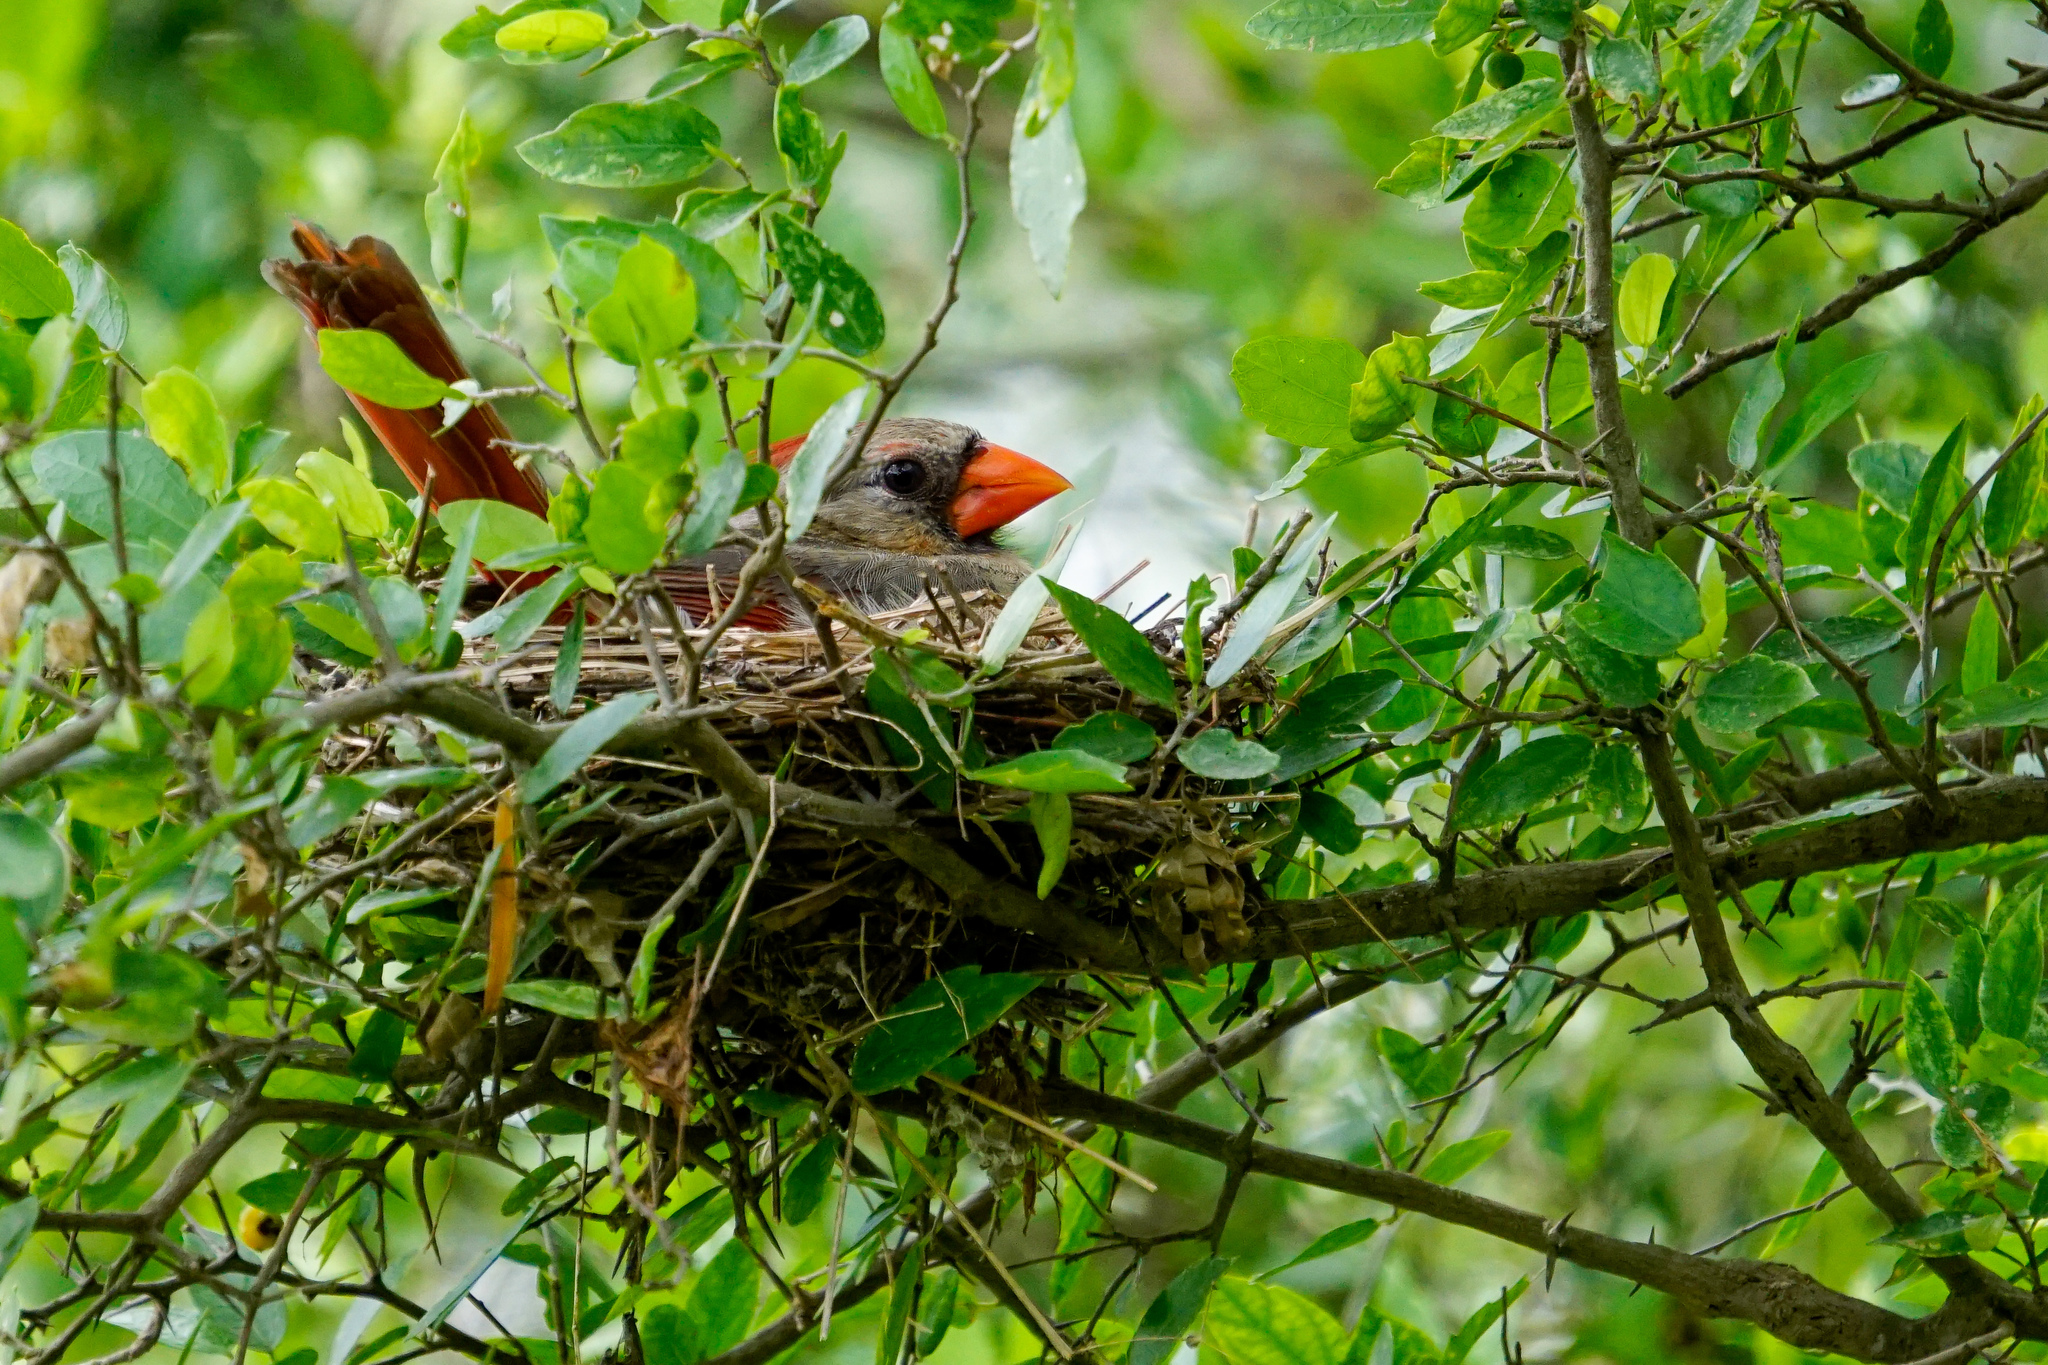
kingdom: Animalia
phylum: Chordata
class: Aves
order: Passeriformes
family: Cardinalidae
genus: Cardinalis
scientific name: Cardinalis cardinalis
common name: Northern cardinal
